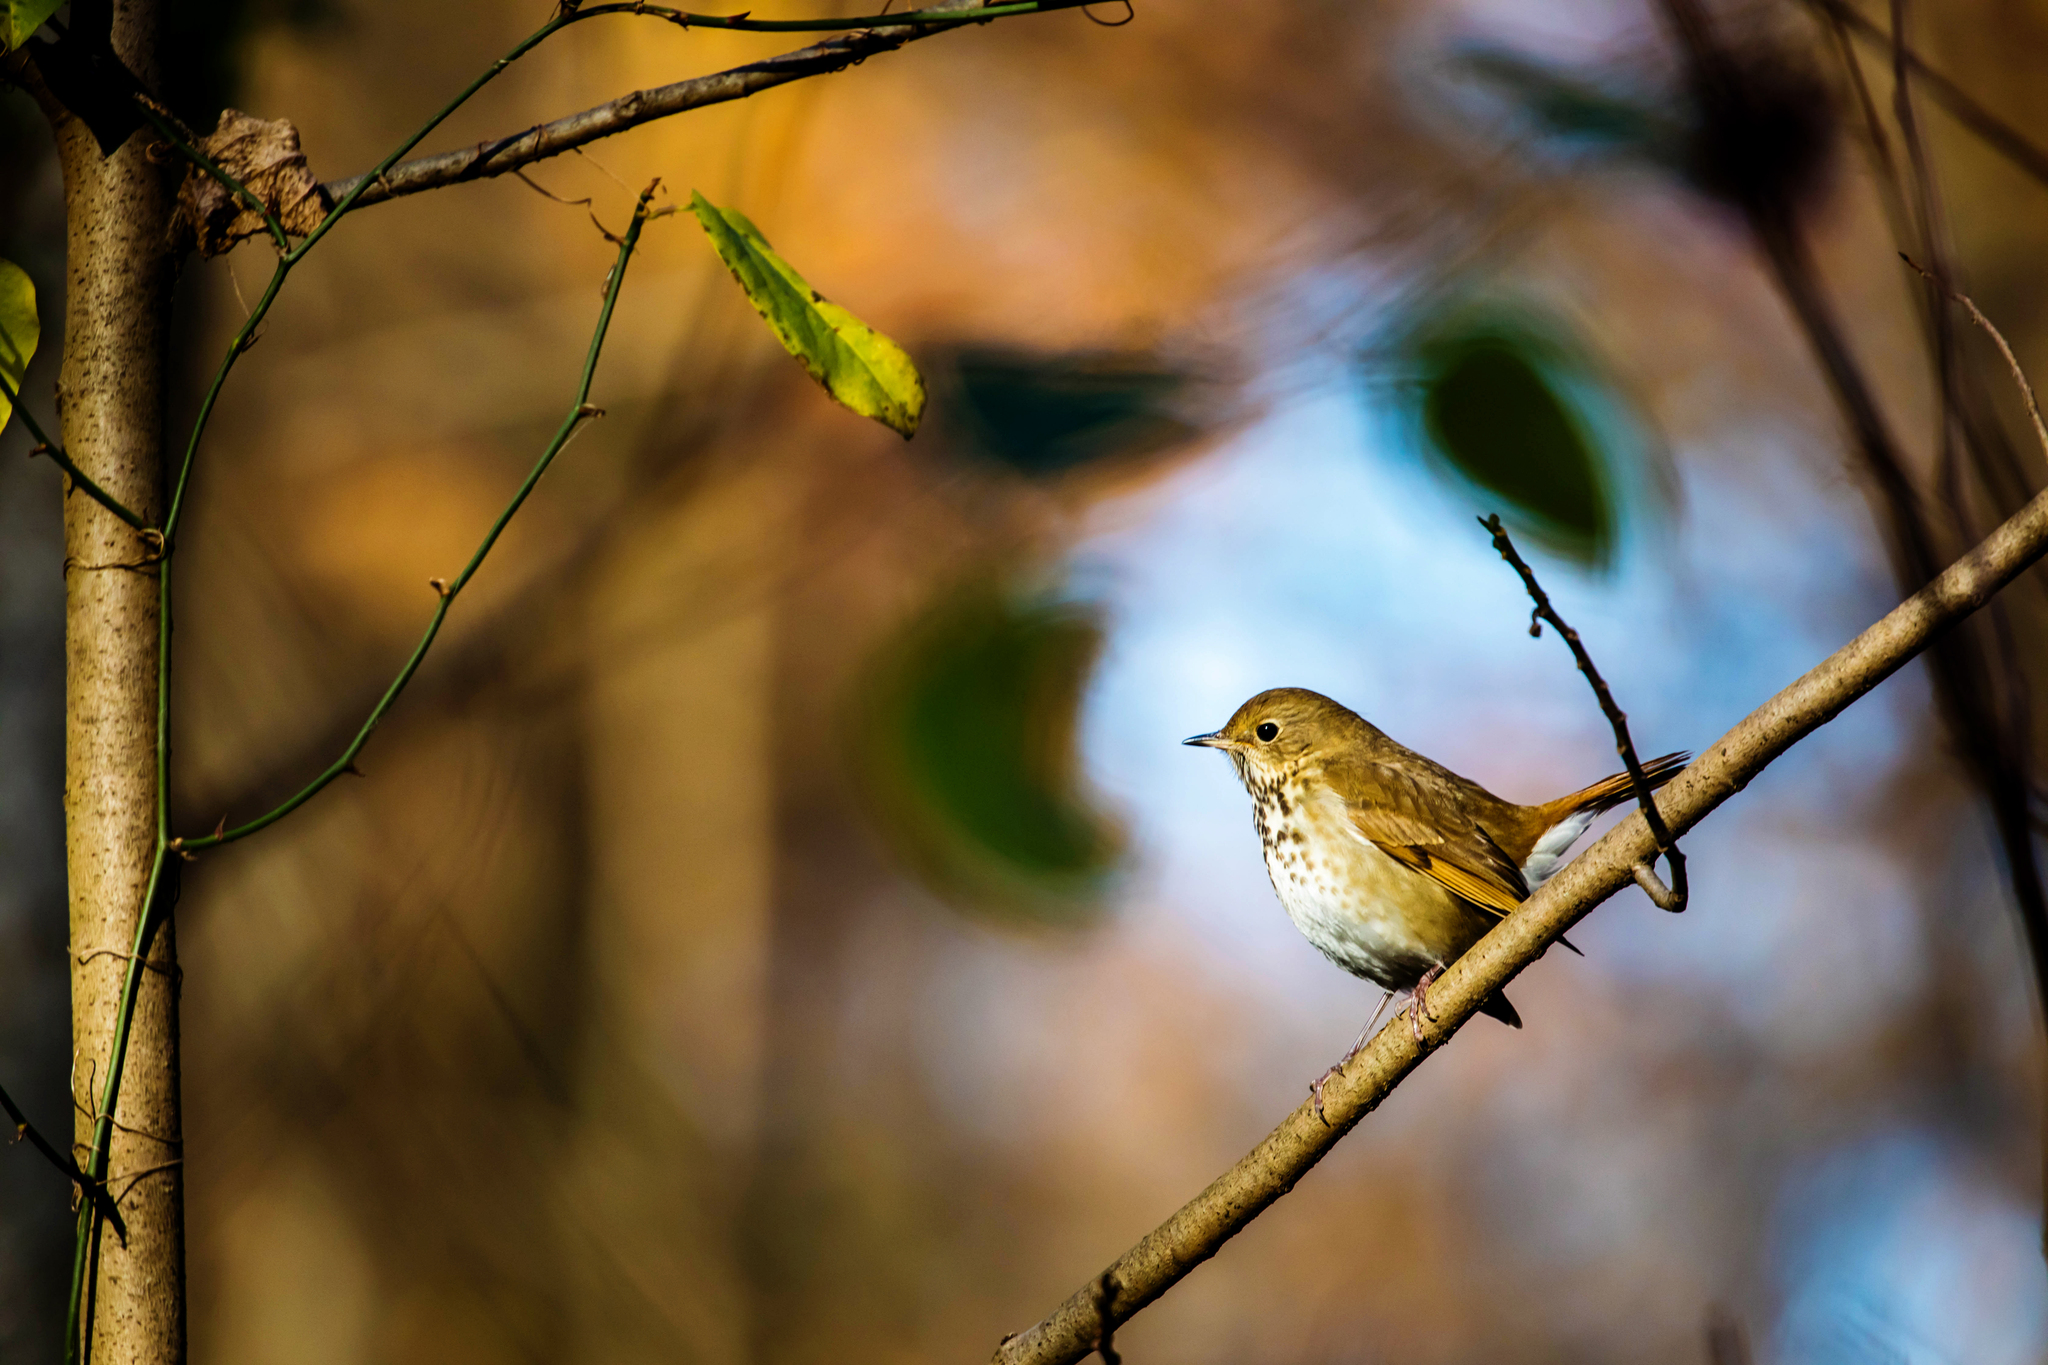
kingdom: Animalia
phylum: Chordata
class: Aves
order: Passeriformes
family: Turdidae
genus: Catharus
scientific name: Catharus guttatus
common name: Hermit thrush
